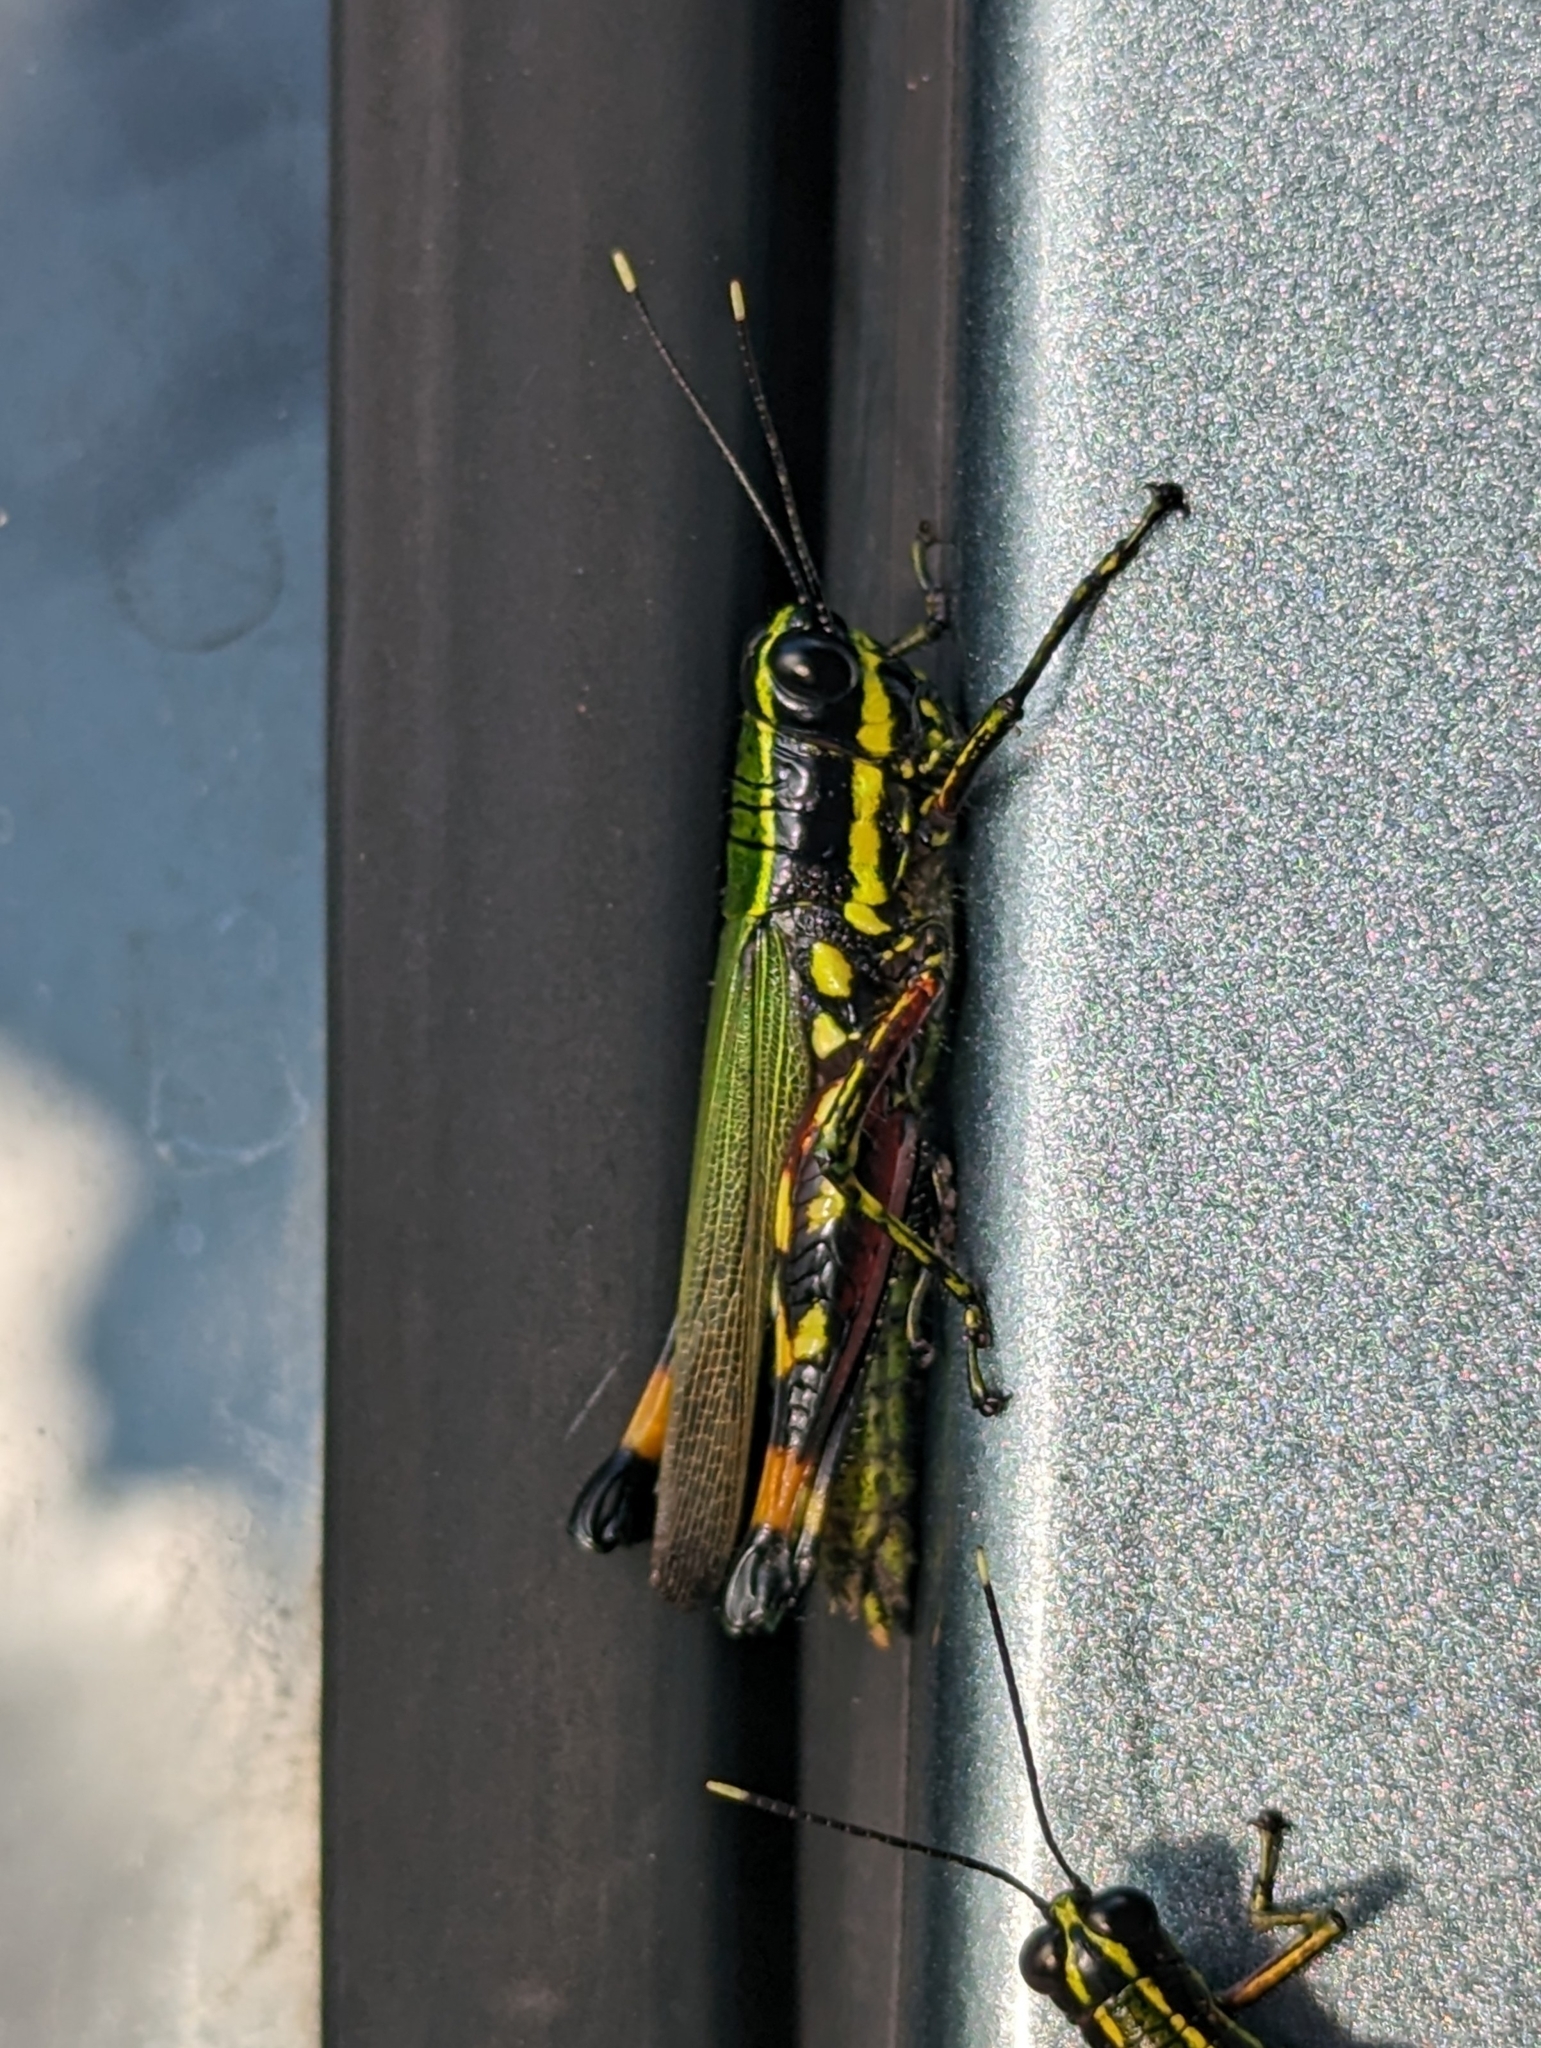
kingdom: Animalia
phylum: Arthropoda
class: Insecta
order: Orthoptera
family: Acrididae
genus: Tetrataenia
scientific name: Tetrataenia surinama
